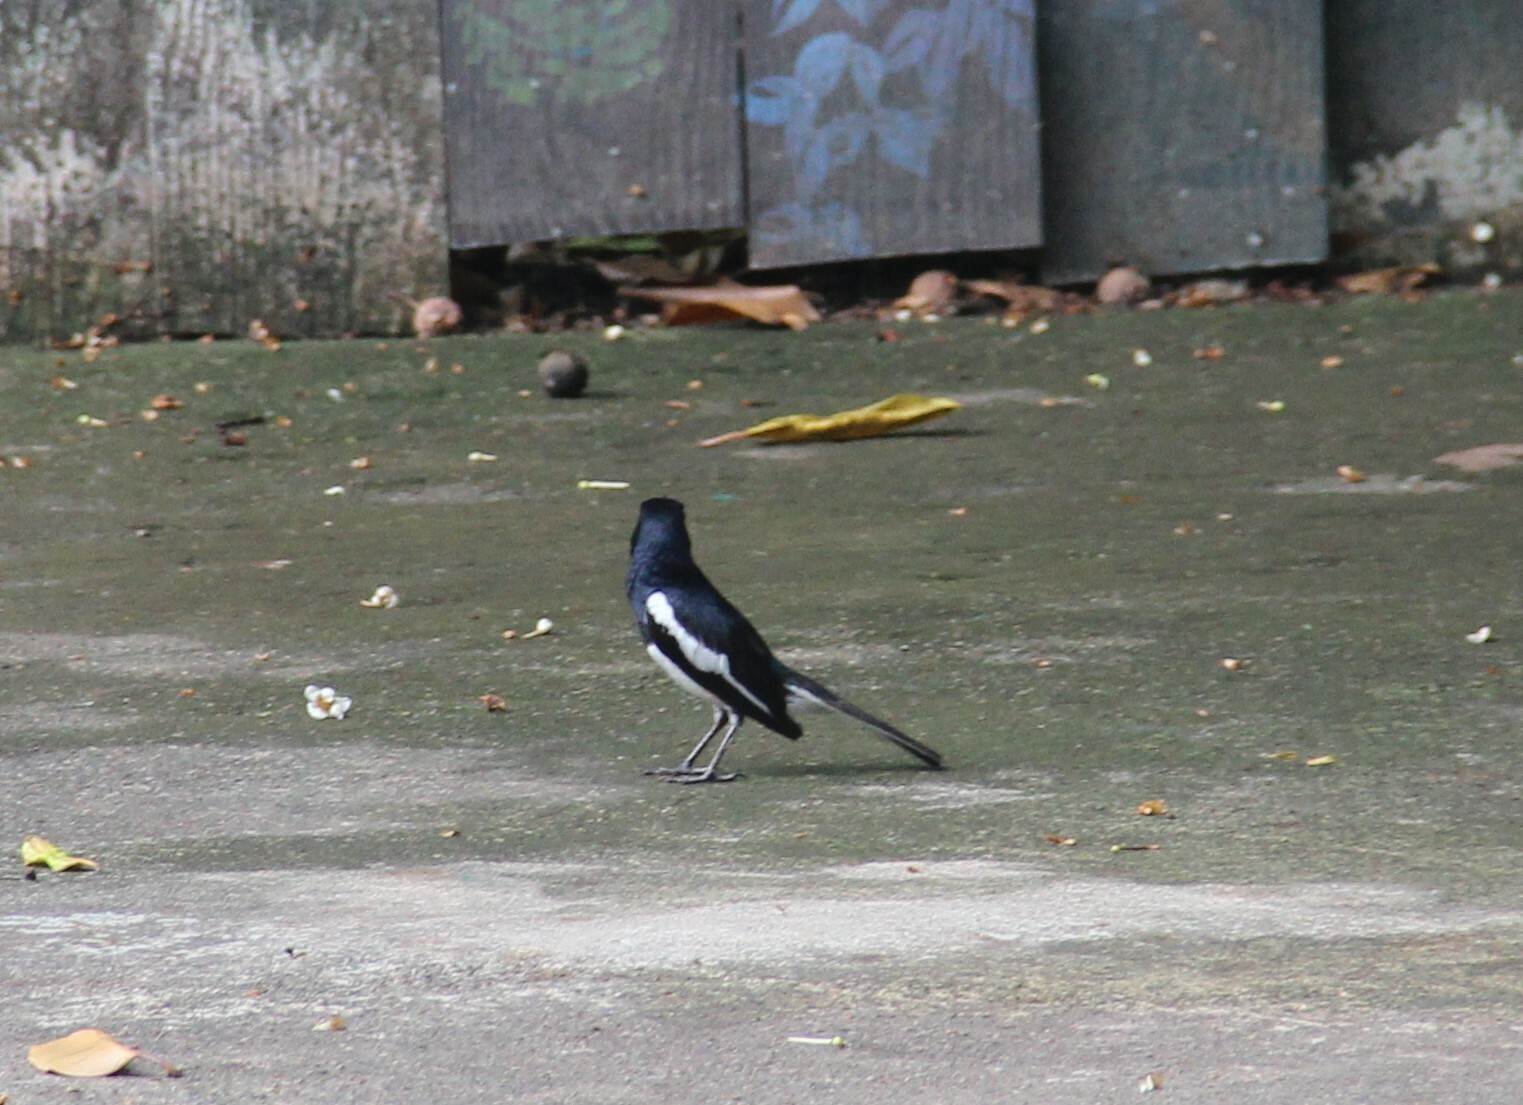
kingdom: Animalia
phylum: Chordata
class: Aves
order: Passeriformes
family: Muscicapidae
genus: Copsychus
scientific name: Copsychus saularis
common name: Oriental magpie-robin
